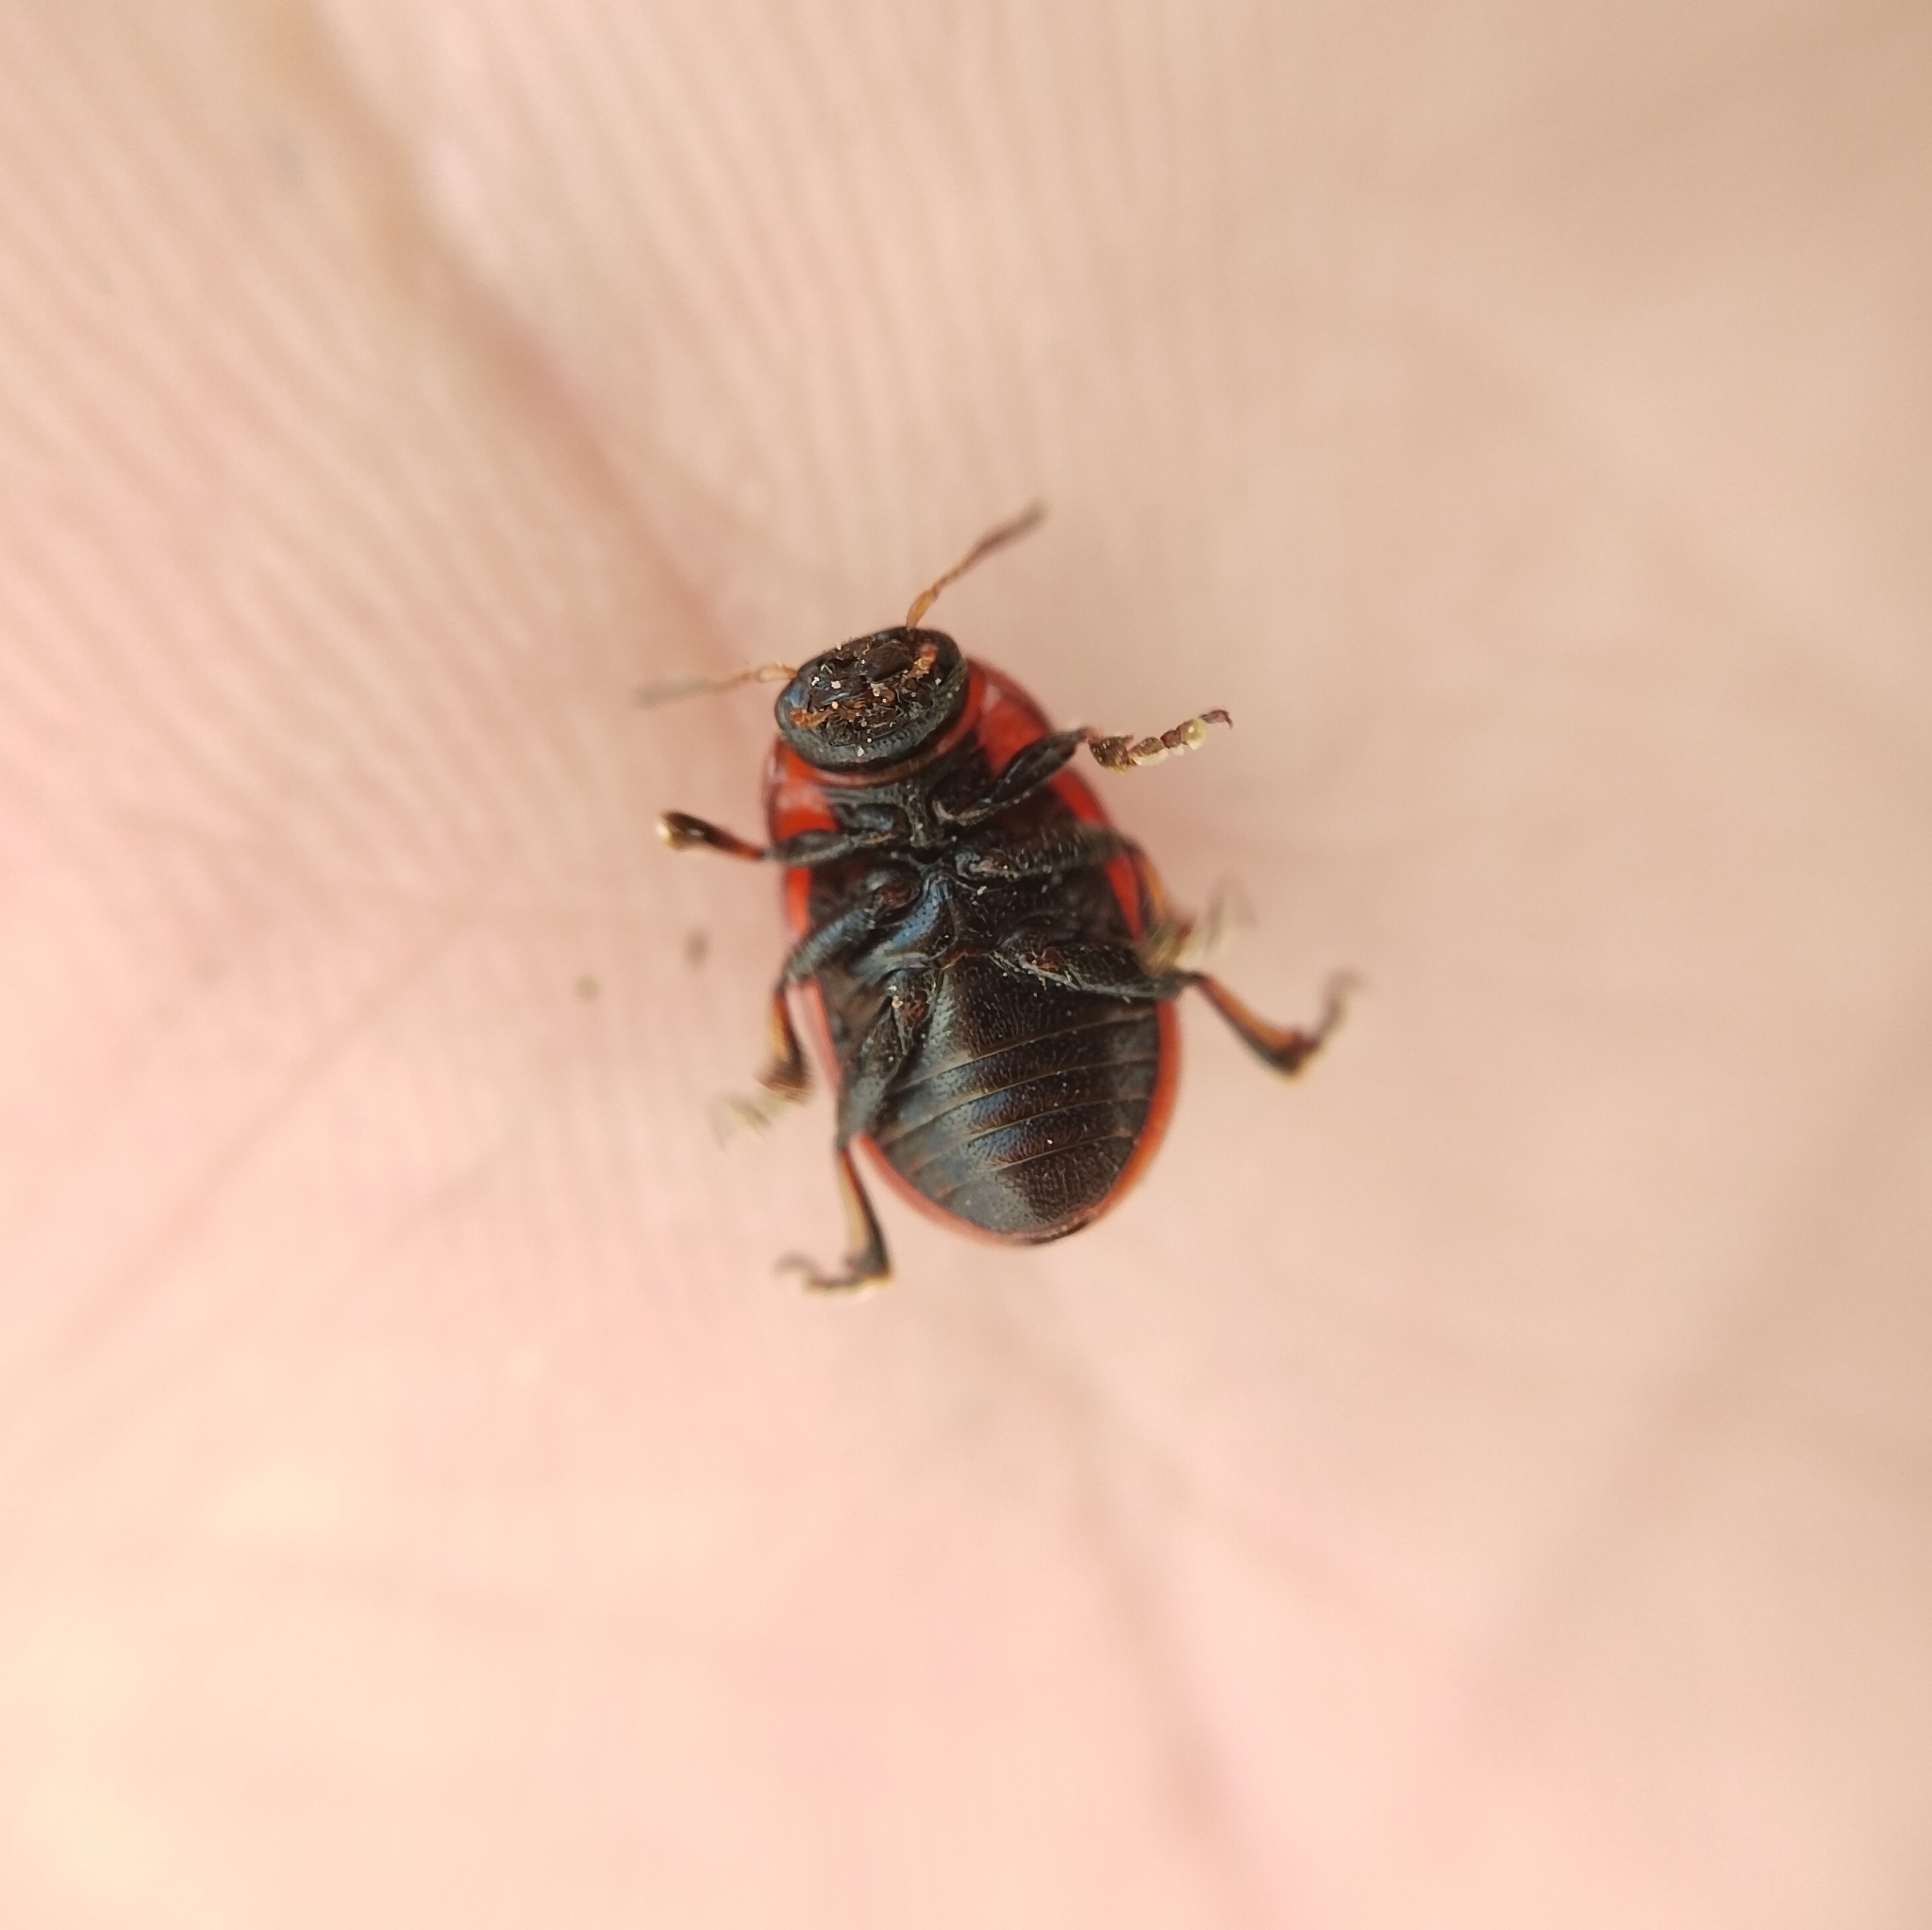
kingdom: Animalia
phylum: Arthropoda
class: Insecta
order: Coleoptera
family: Chrysomelidae
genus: Gonioctena
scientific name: Gonioctena fornicata
